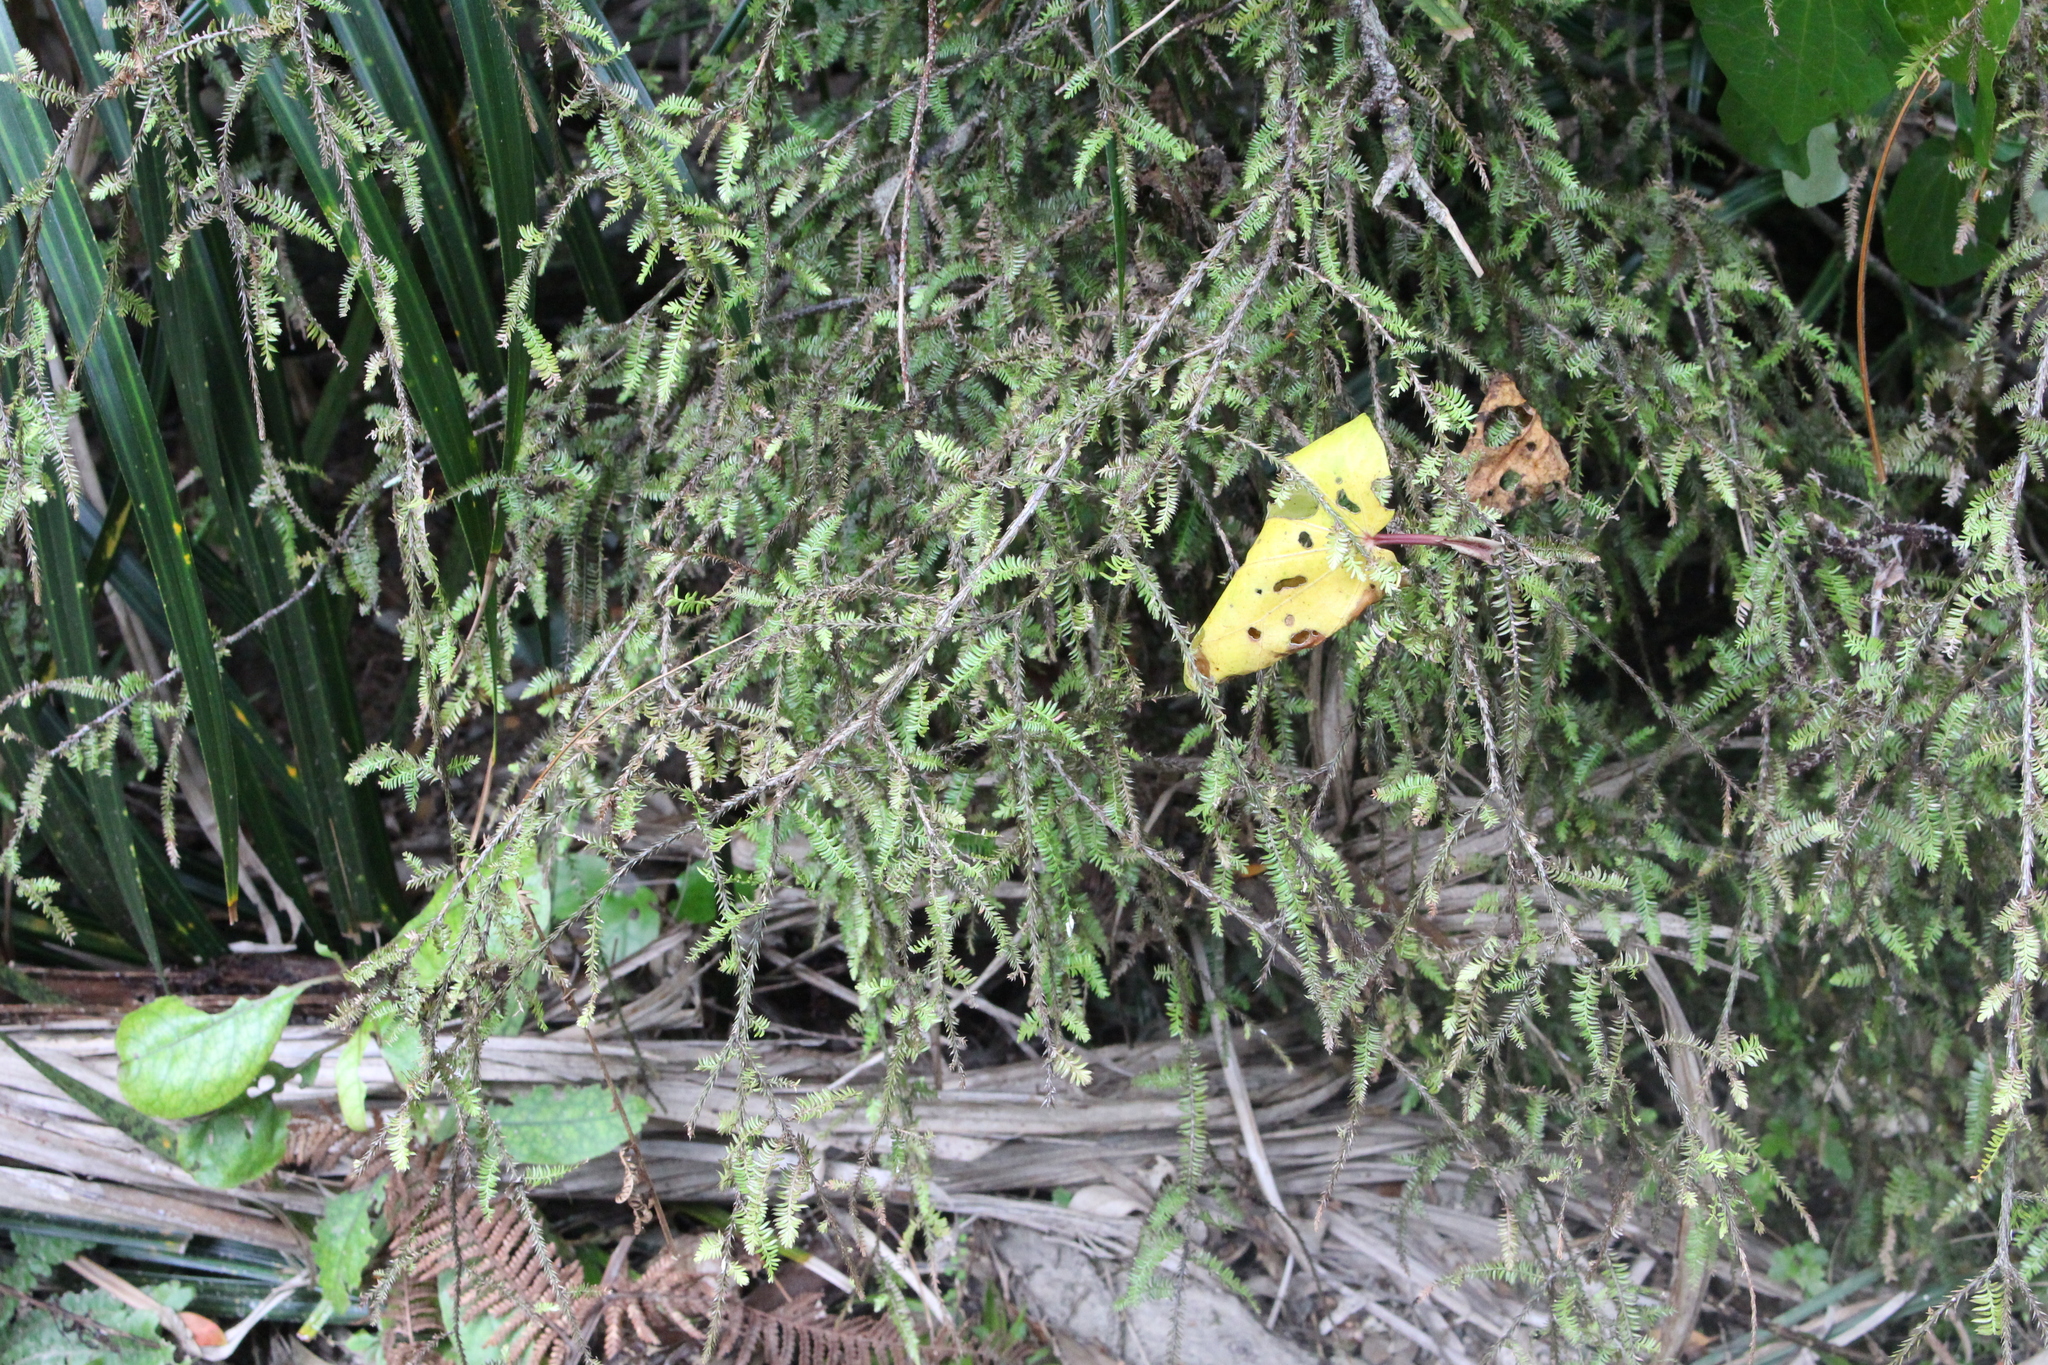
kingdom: Plantae
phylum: Tracheophyta
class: Pinopsida
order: Pinales
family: Podocarpaceae
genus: Dacrycarpus
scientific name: Dacrycarpus dacrydioides
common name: White pine
